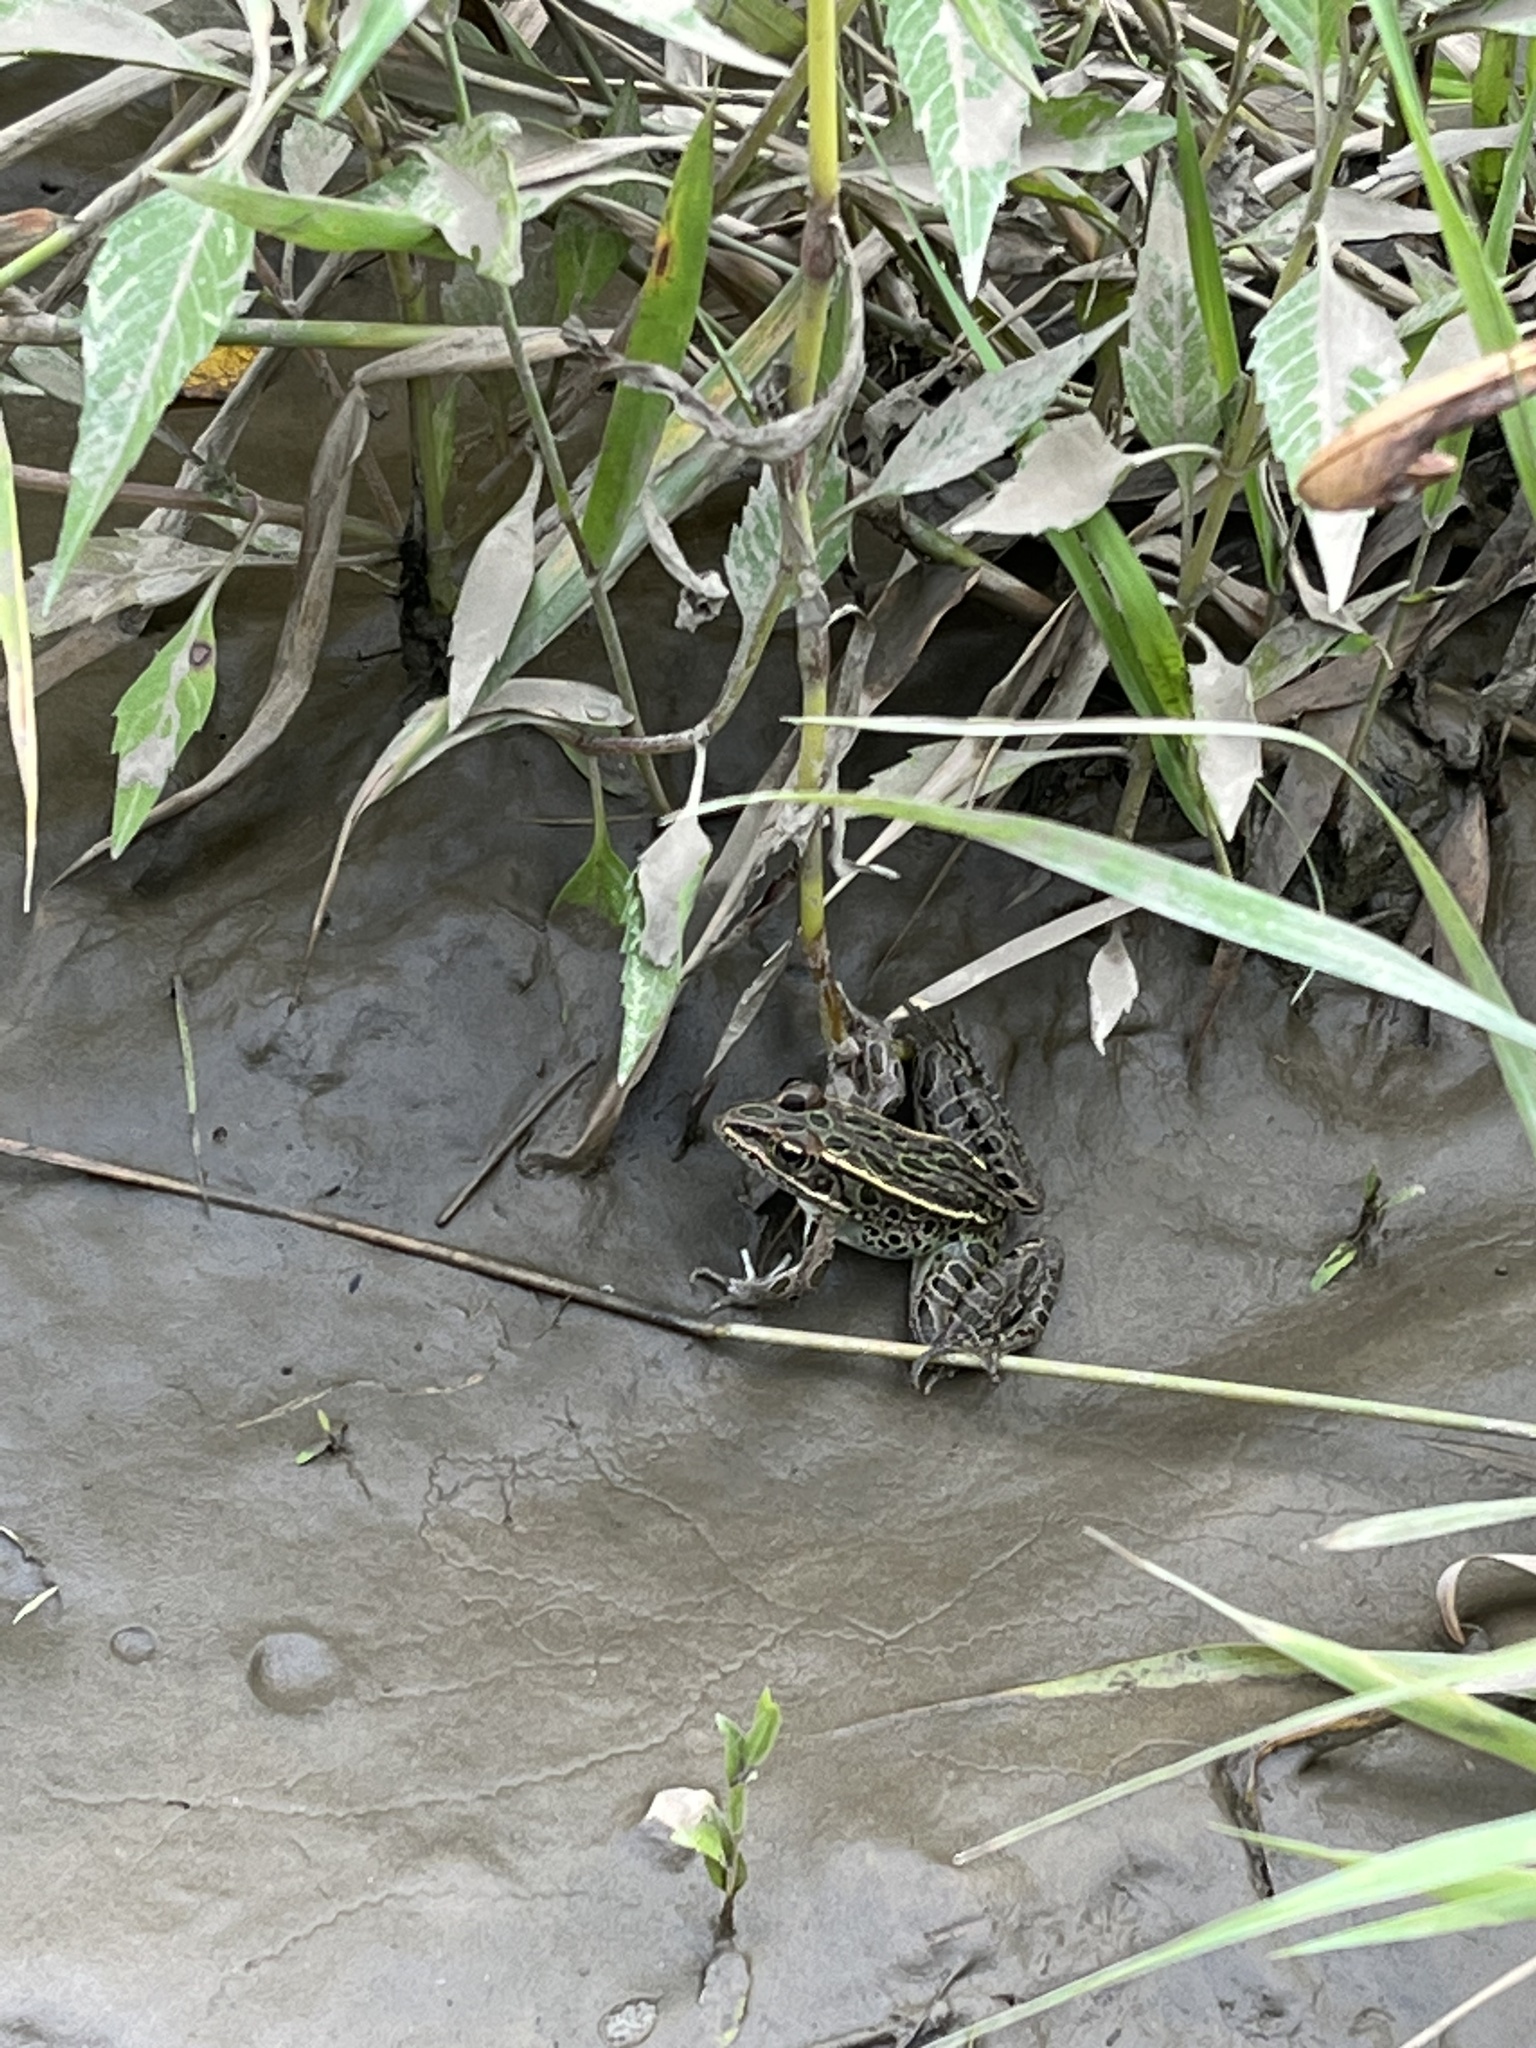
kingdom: Animalia
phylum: Chordata
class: Amphibia
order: Anura
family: Ranidae
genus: Lithobates
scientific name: Lithobates pipiens
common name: Northern leopard frog
